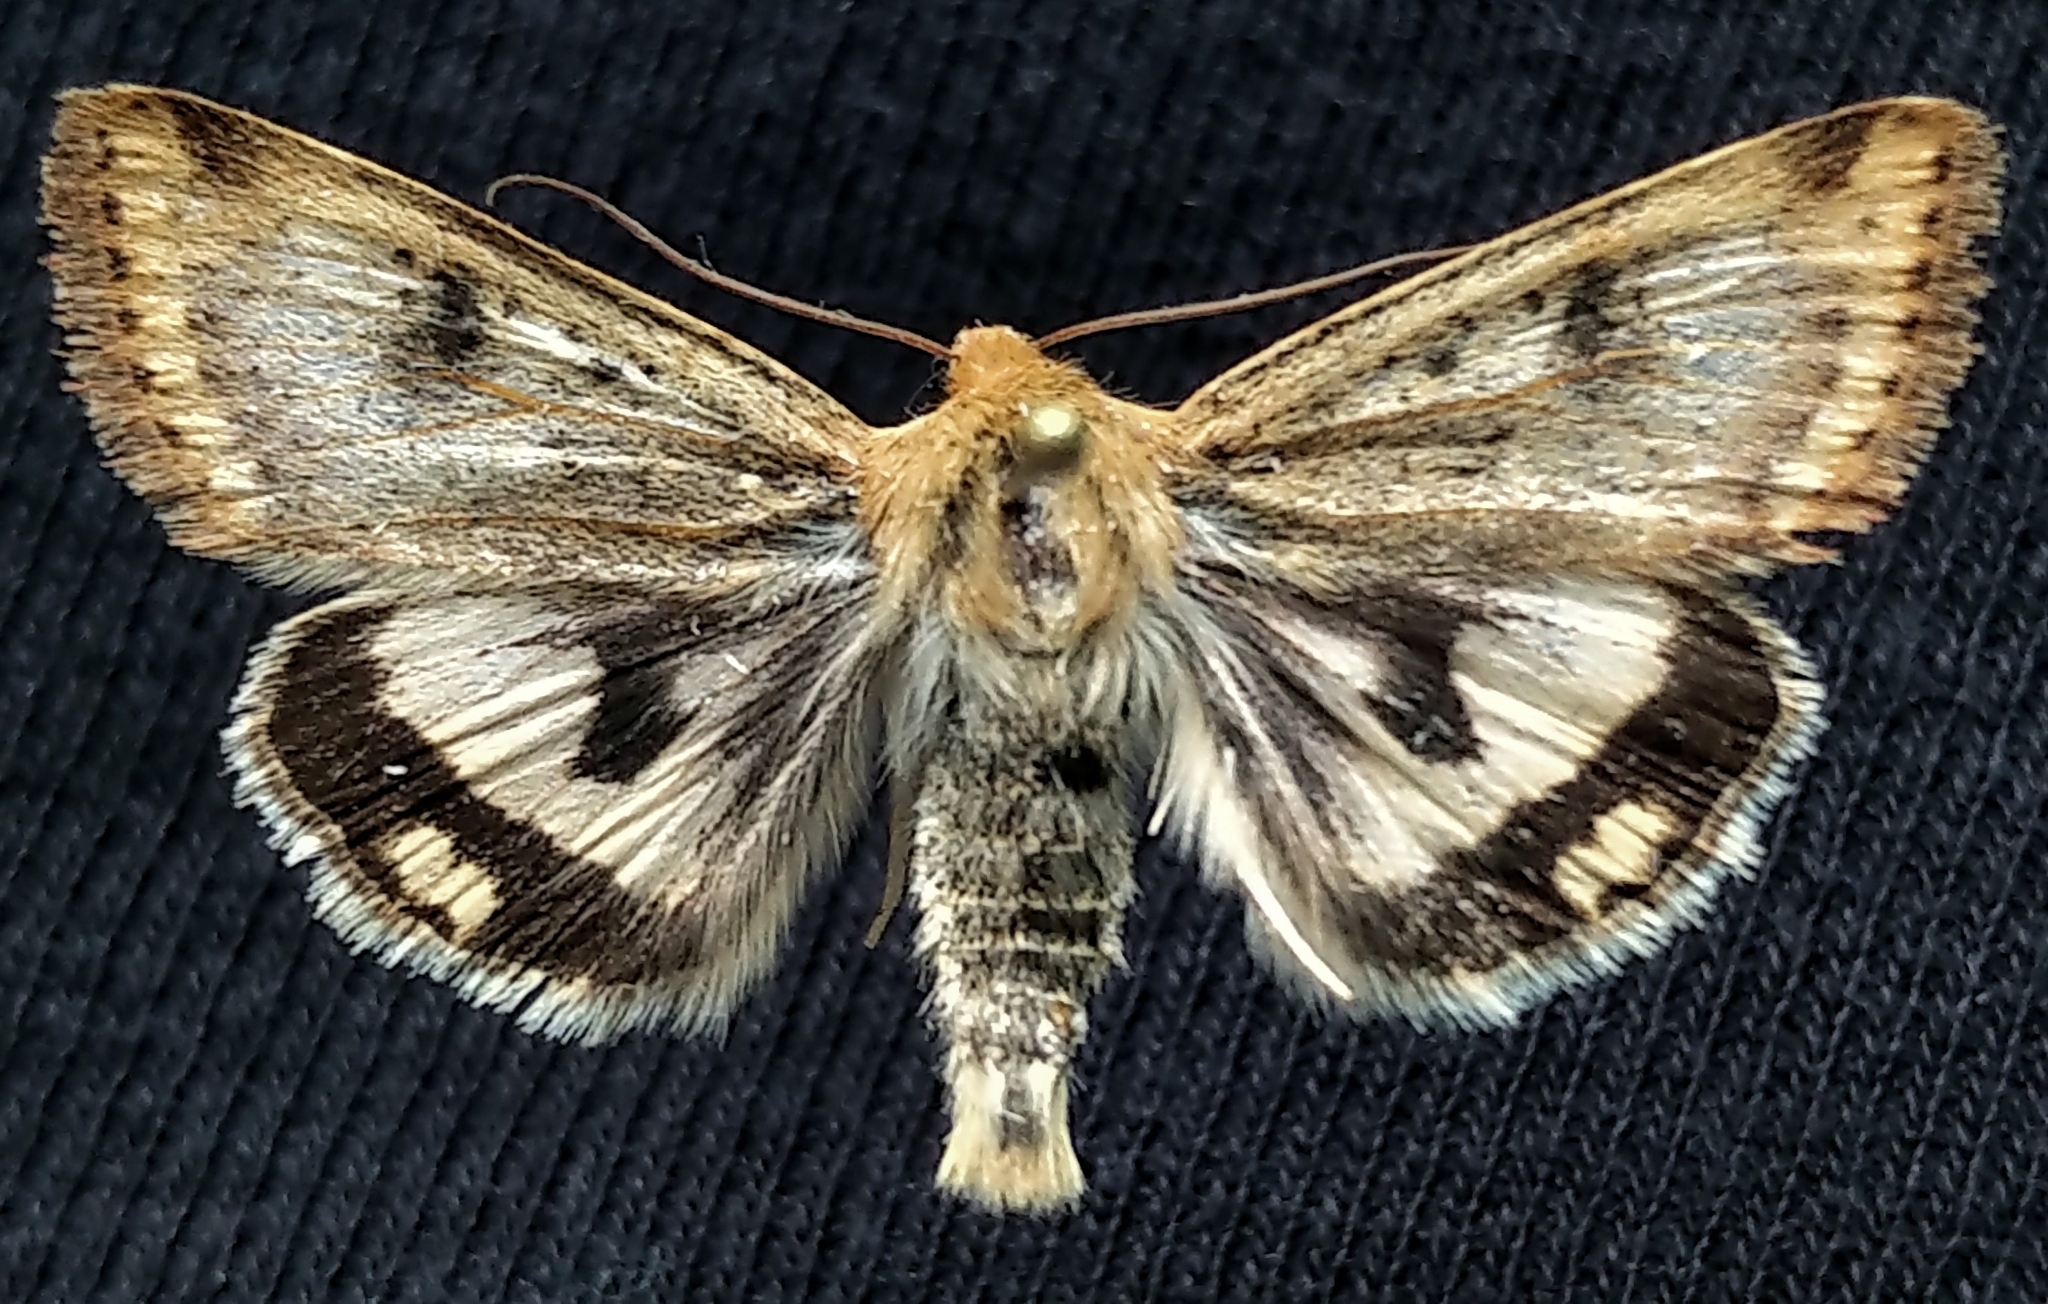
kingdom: Animalia
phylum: Arthropoda
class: Insecta
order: Lepidoptera
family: Noctuidae
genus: Heliothis
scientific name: Heliothis phloxiphaga
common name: Darker spotted straw moth
